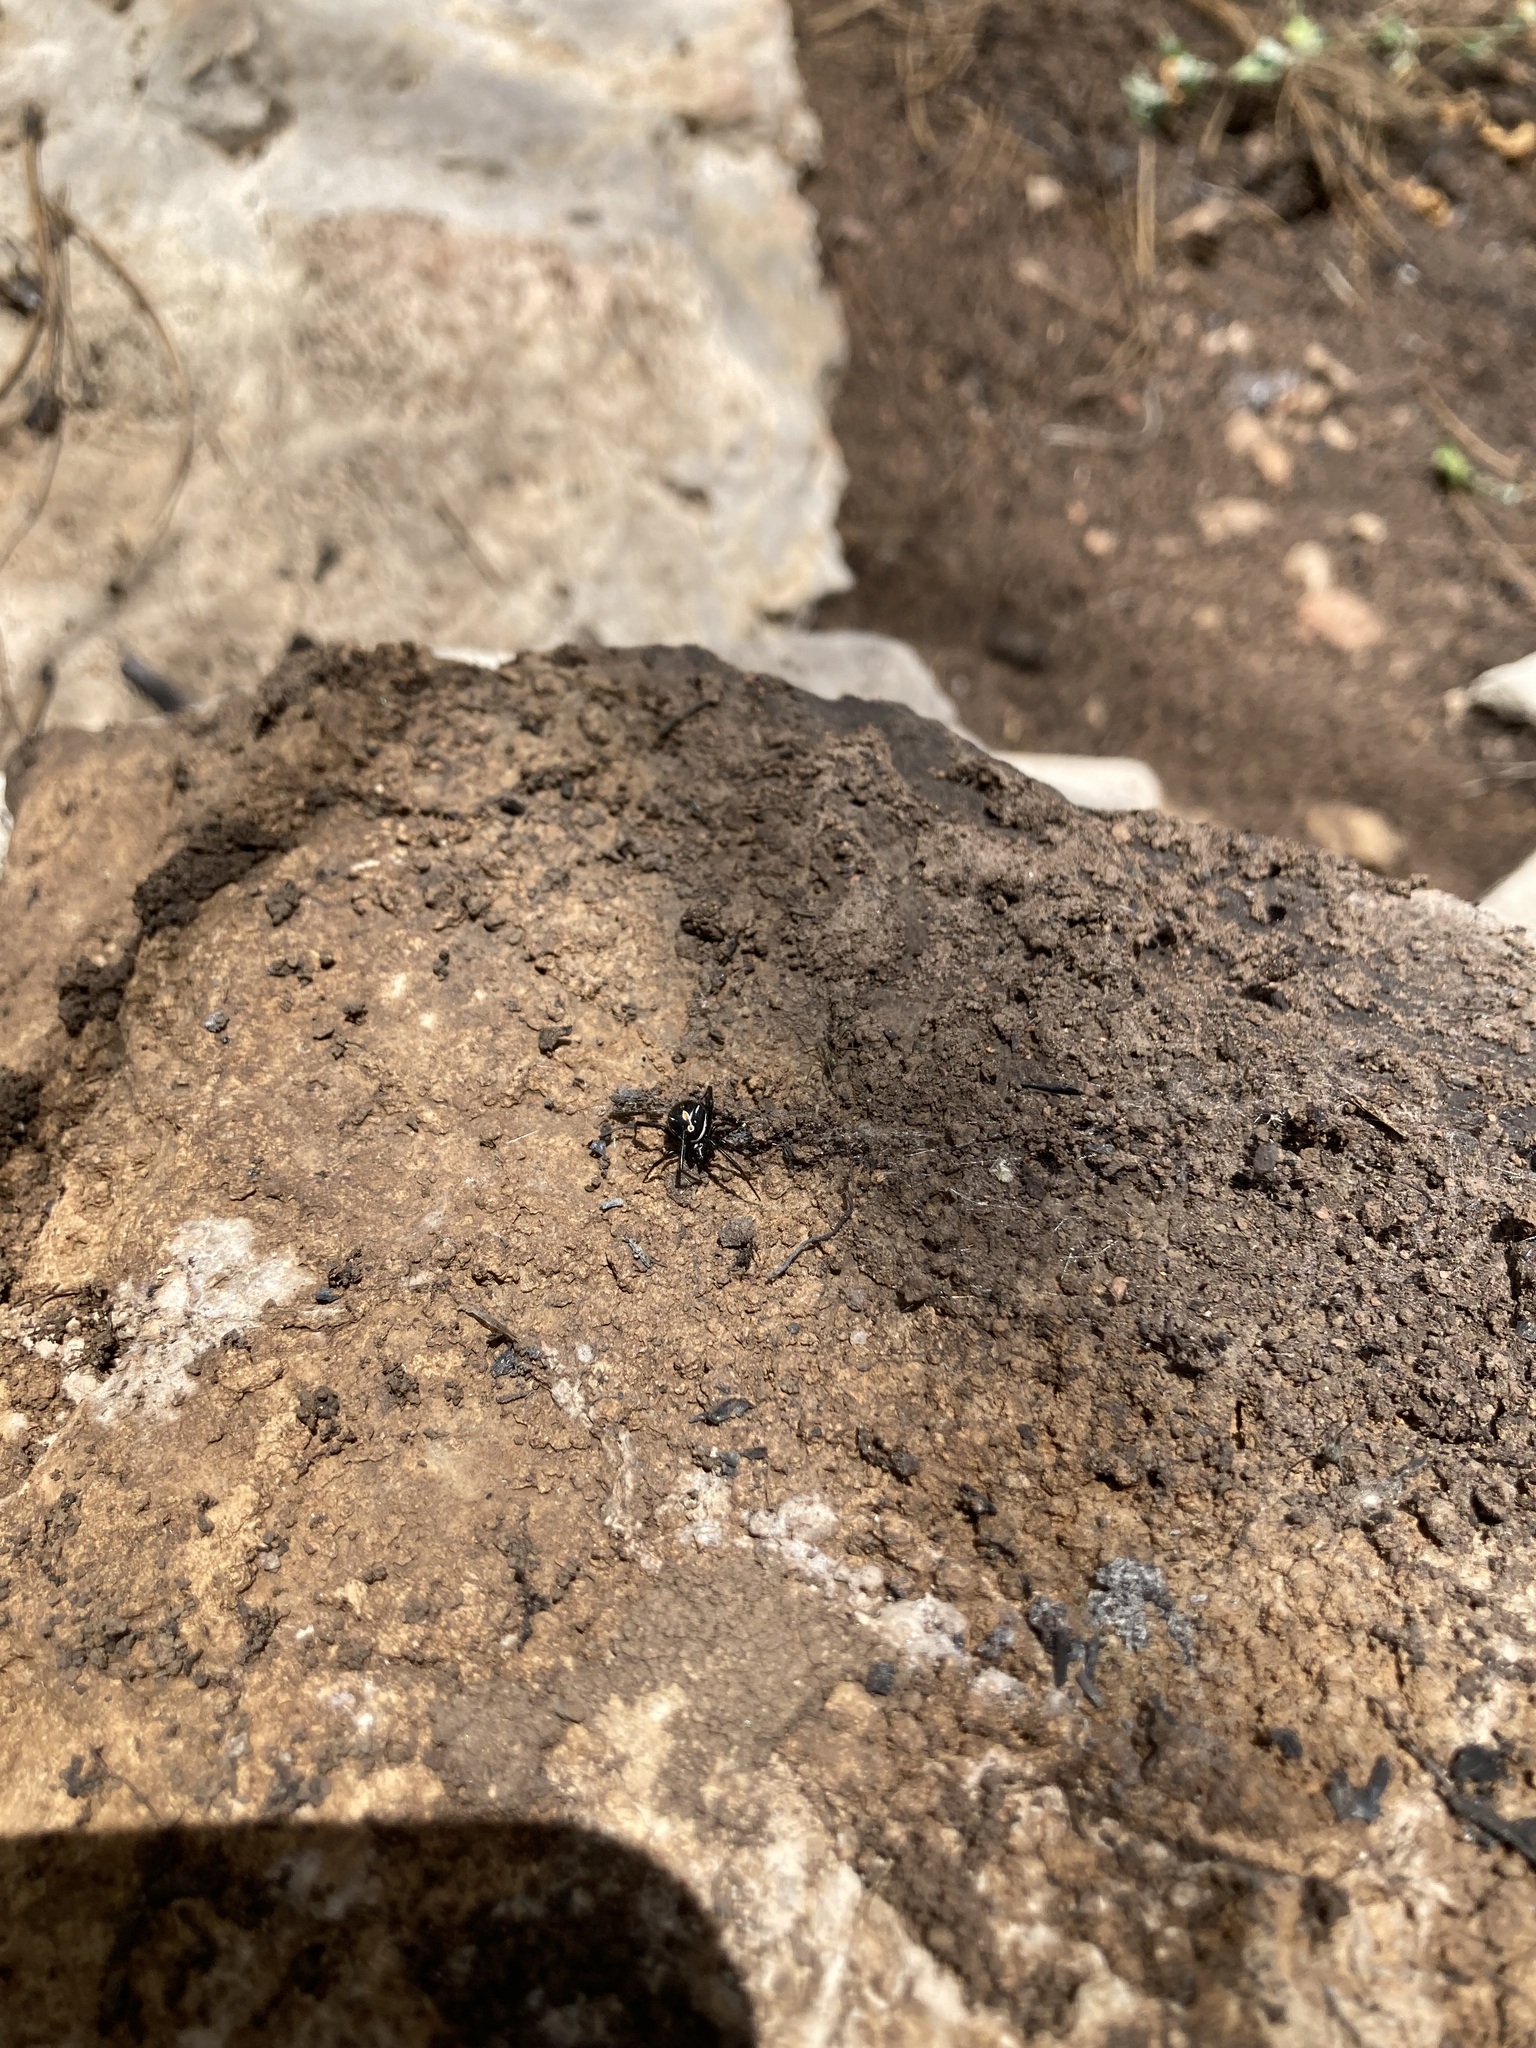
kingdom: Animalia
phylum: Arthropoda
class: Arachnida
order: Araneae
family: Theridiidae
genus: Latrodectus
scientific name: Latrodectus hesperus
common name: Western black widow
